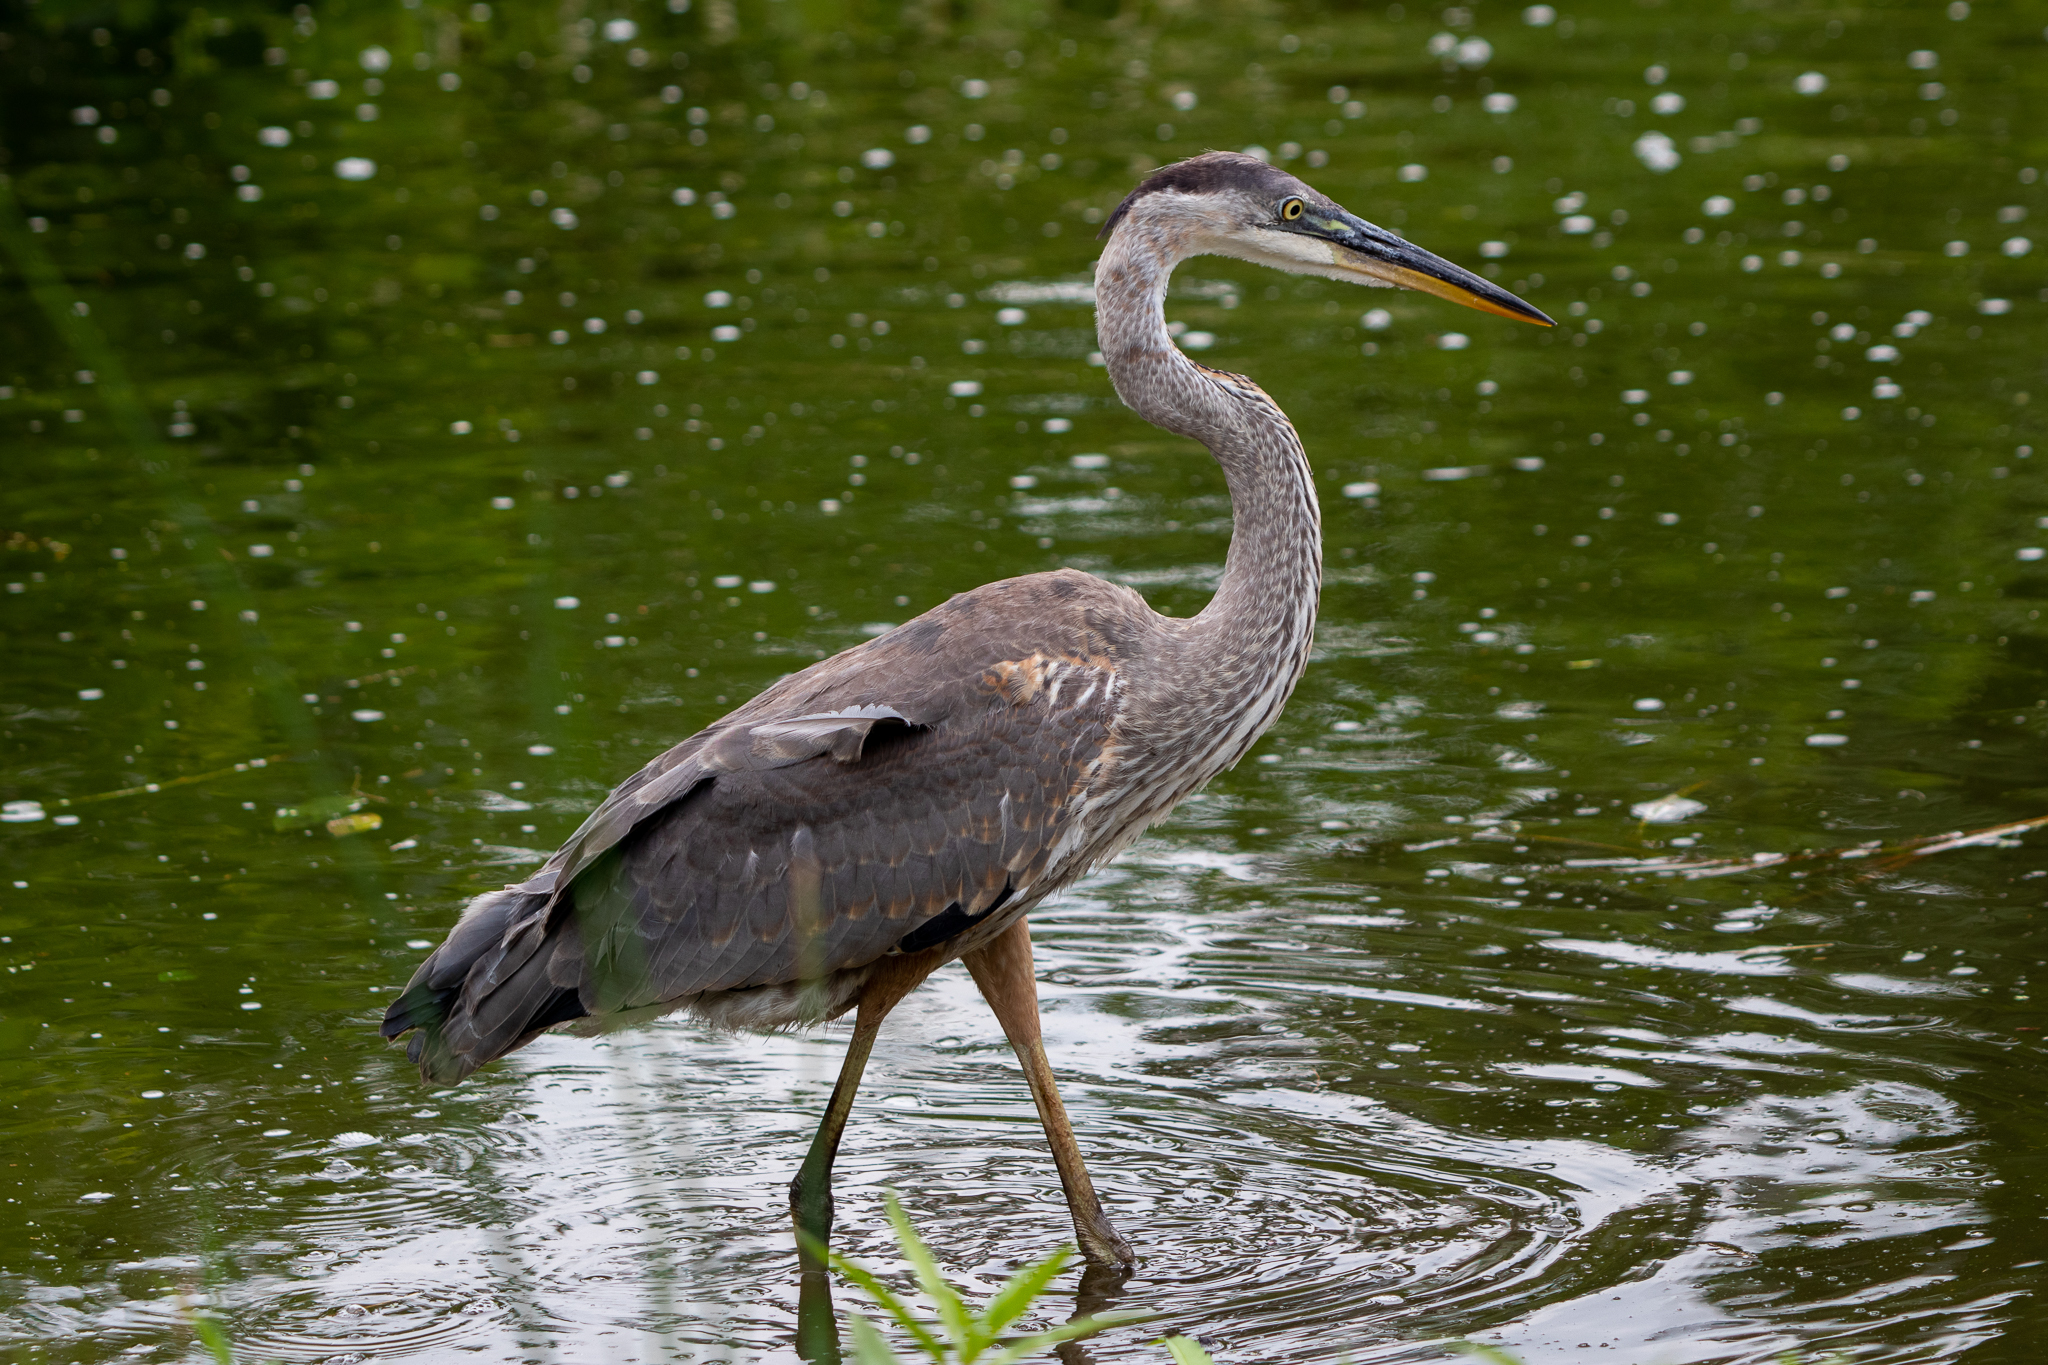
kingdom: Animalia
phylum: Chordata
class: Aves
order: Pelecaniformes
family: Ardeidae
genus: Ardea
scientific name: Ardea herodias
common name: Great blue heron
